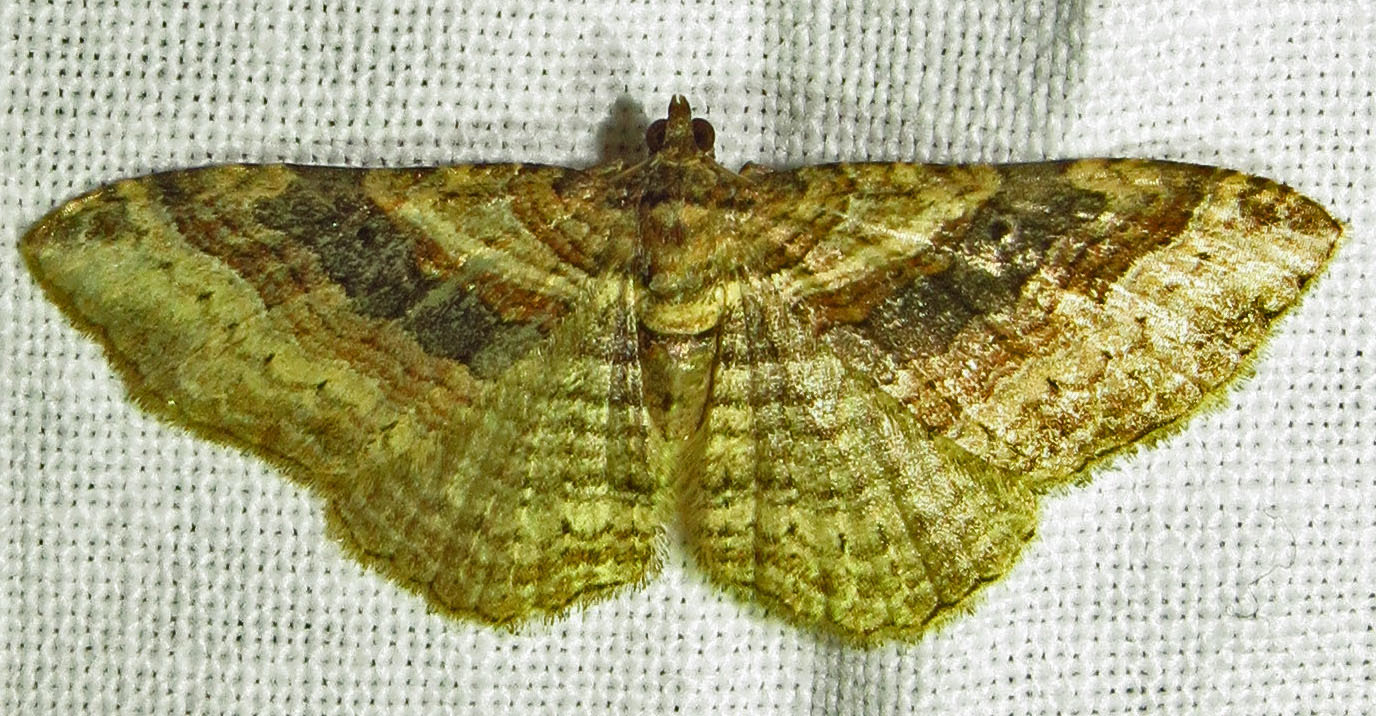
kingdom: Animalia
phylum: Arthropoda
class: Insecta
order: Lepidoptera
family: Geometridae
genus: Costaconvexa
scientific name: Costaconvexa centrostrigaria
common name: Bent-line carpet
